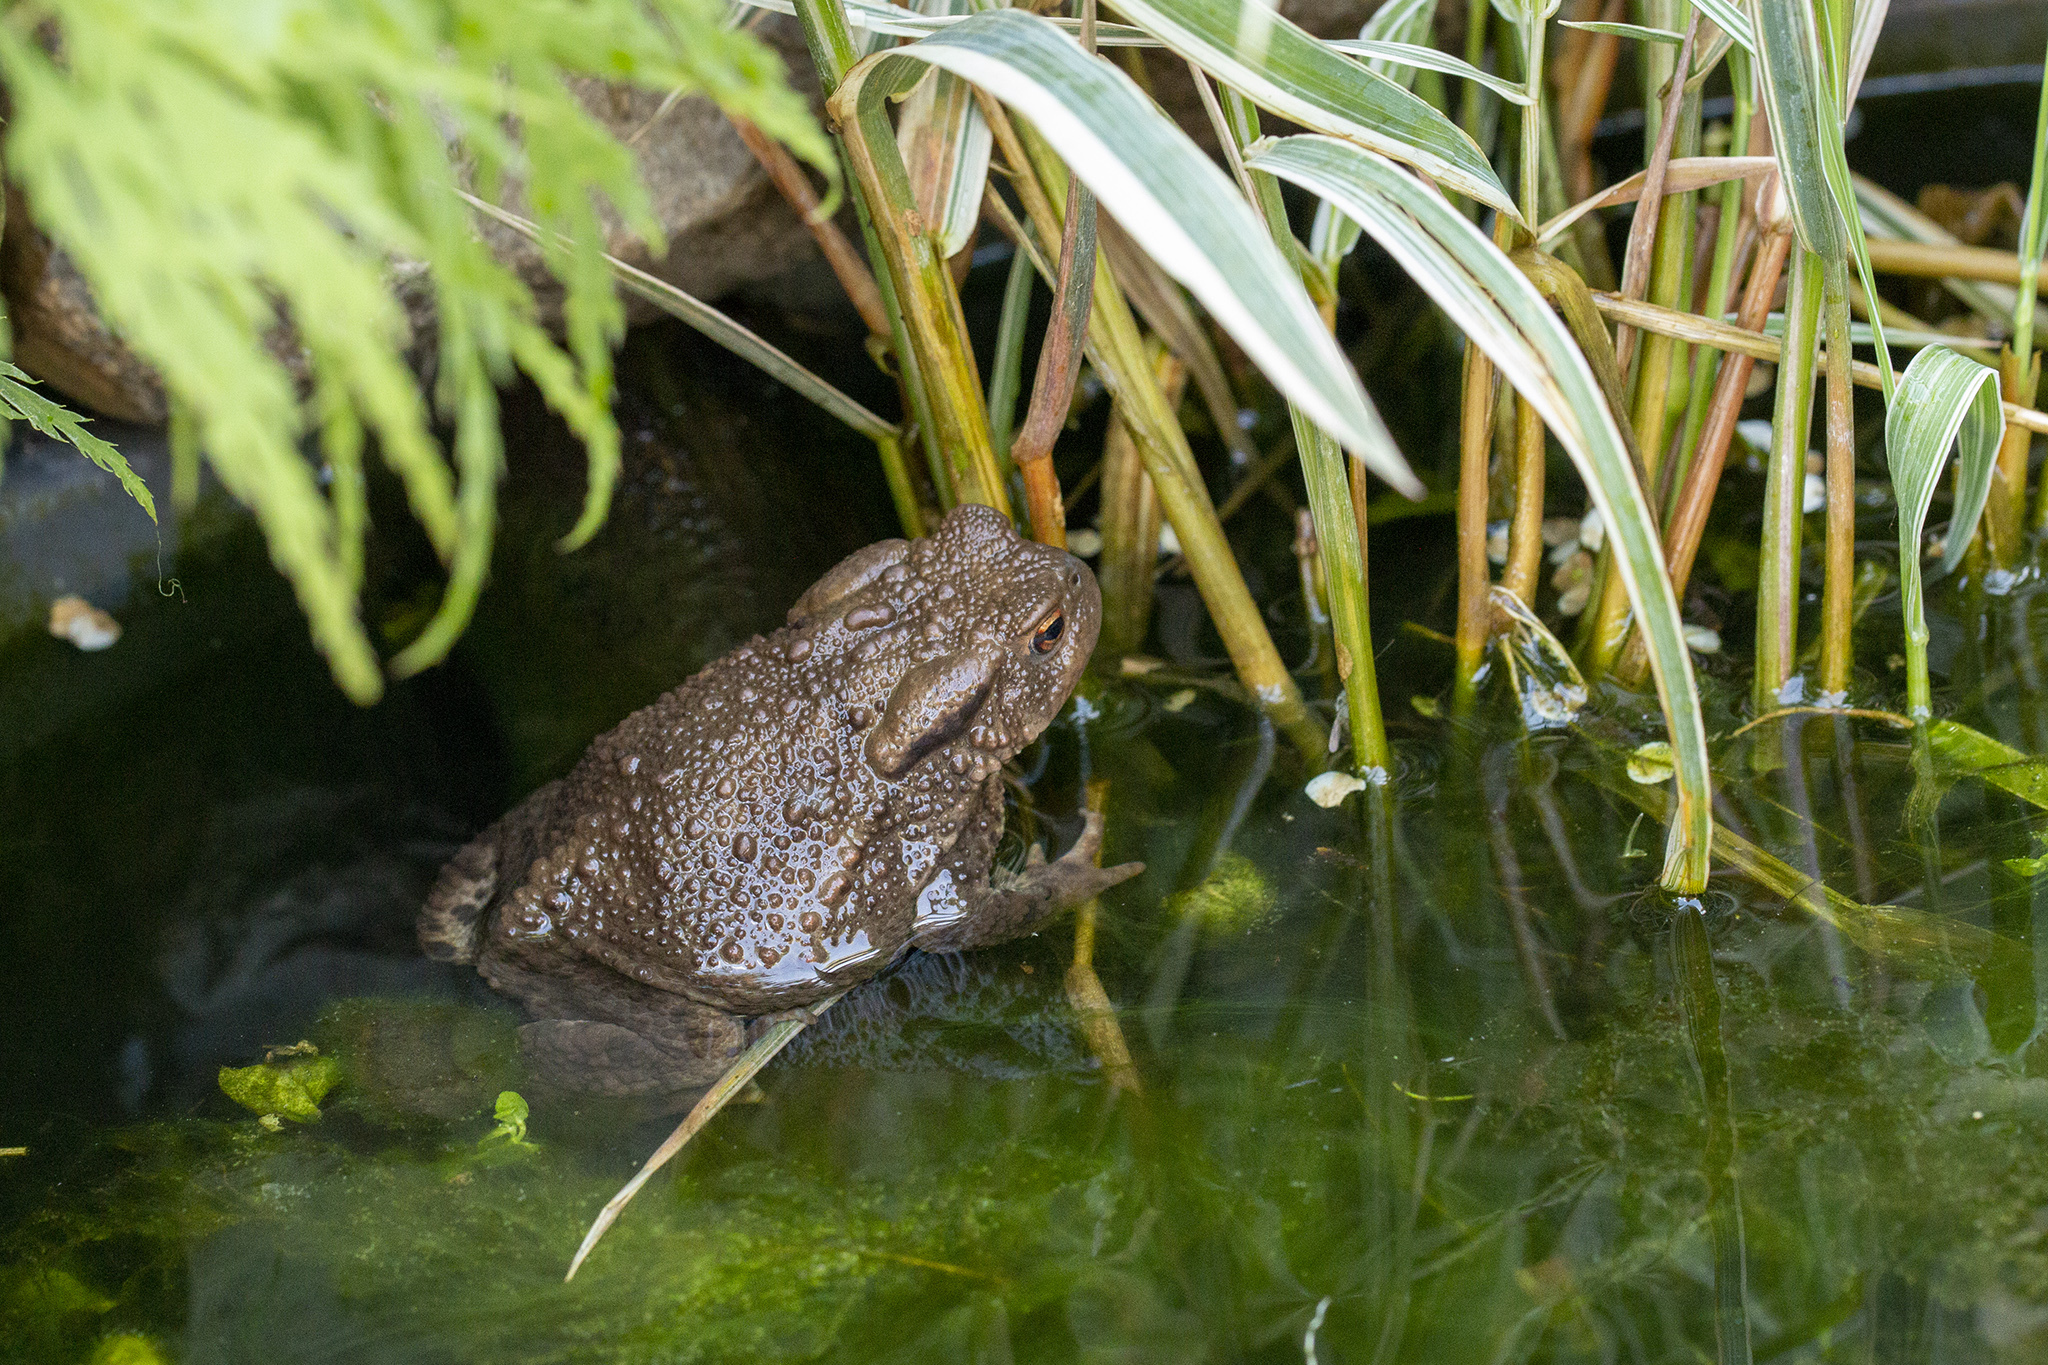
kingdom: Animalia
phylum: Chordata
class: Amphibia
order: Anura
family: Bufonidae
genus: Bufo
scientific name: Bufo bufo
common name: Common toad
